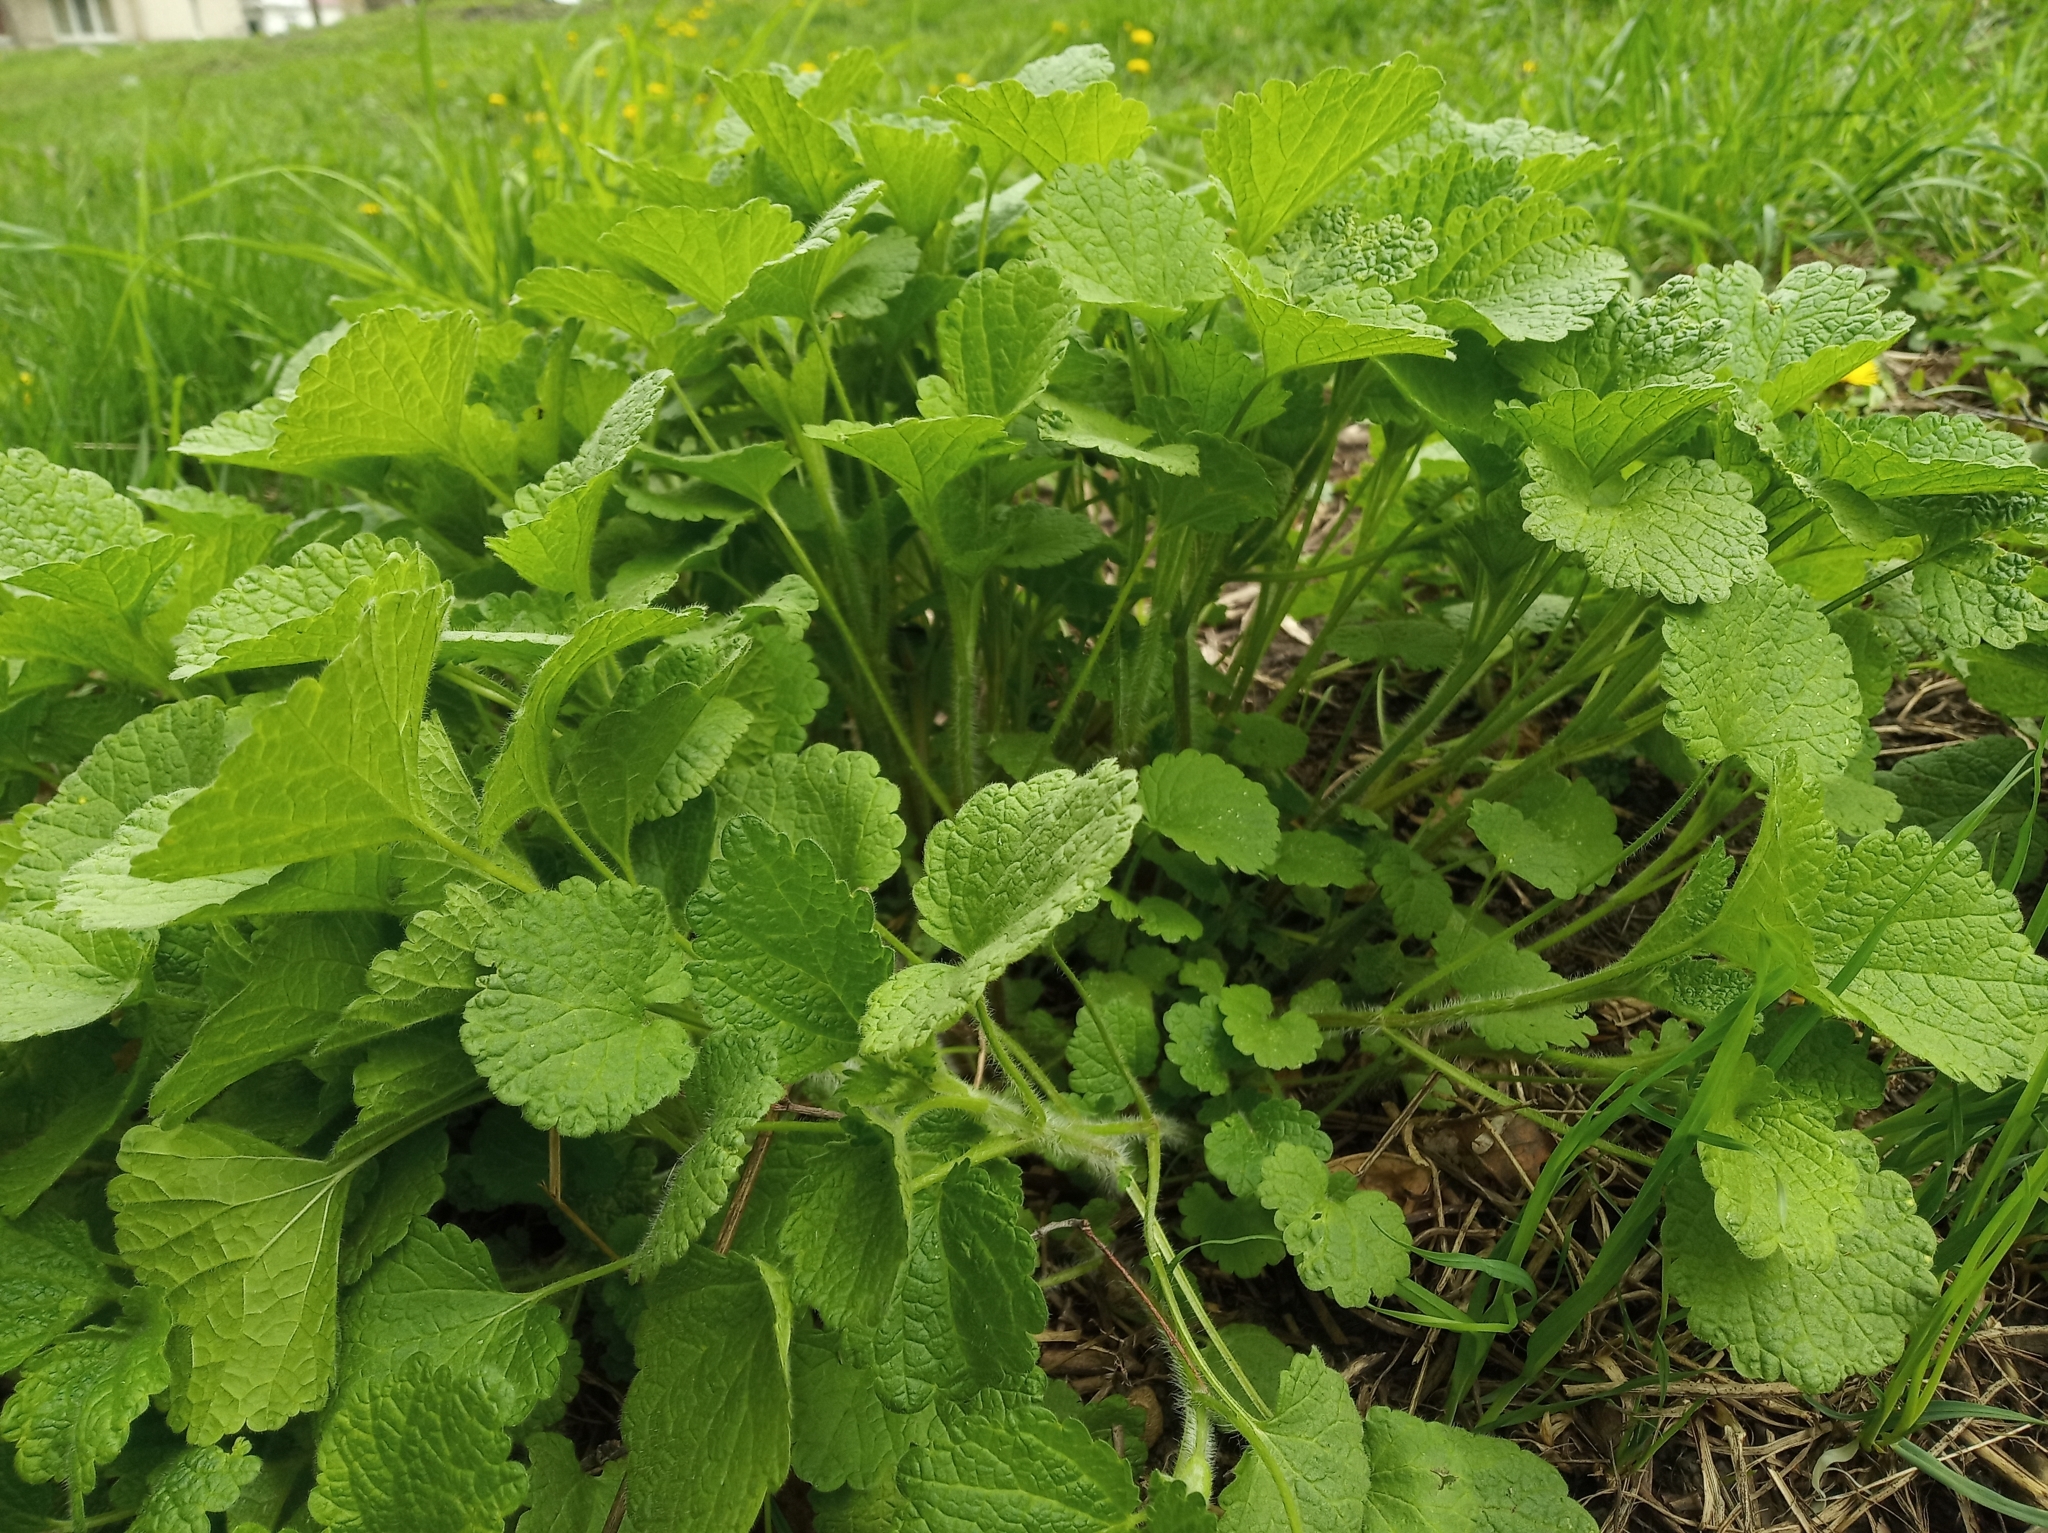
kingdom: Plantae
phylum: Tracheophyta
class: Magnoliopsida
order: Brassicales
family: Brassicaceae
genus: Alliaria
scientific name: Alliaria petiolata
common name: Garlic mustard
